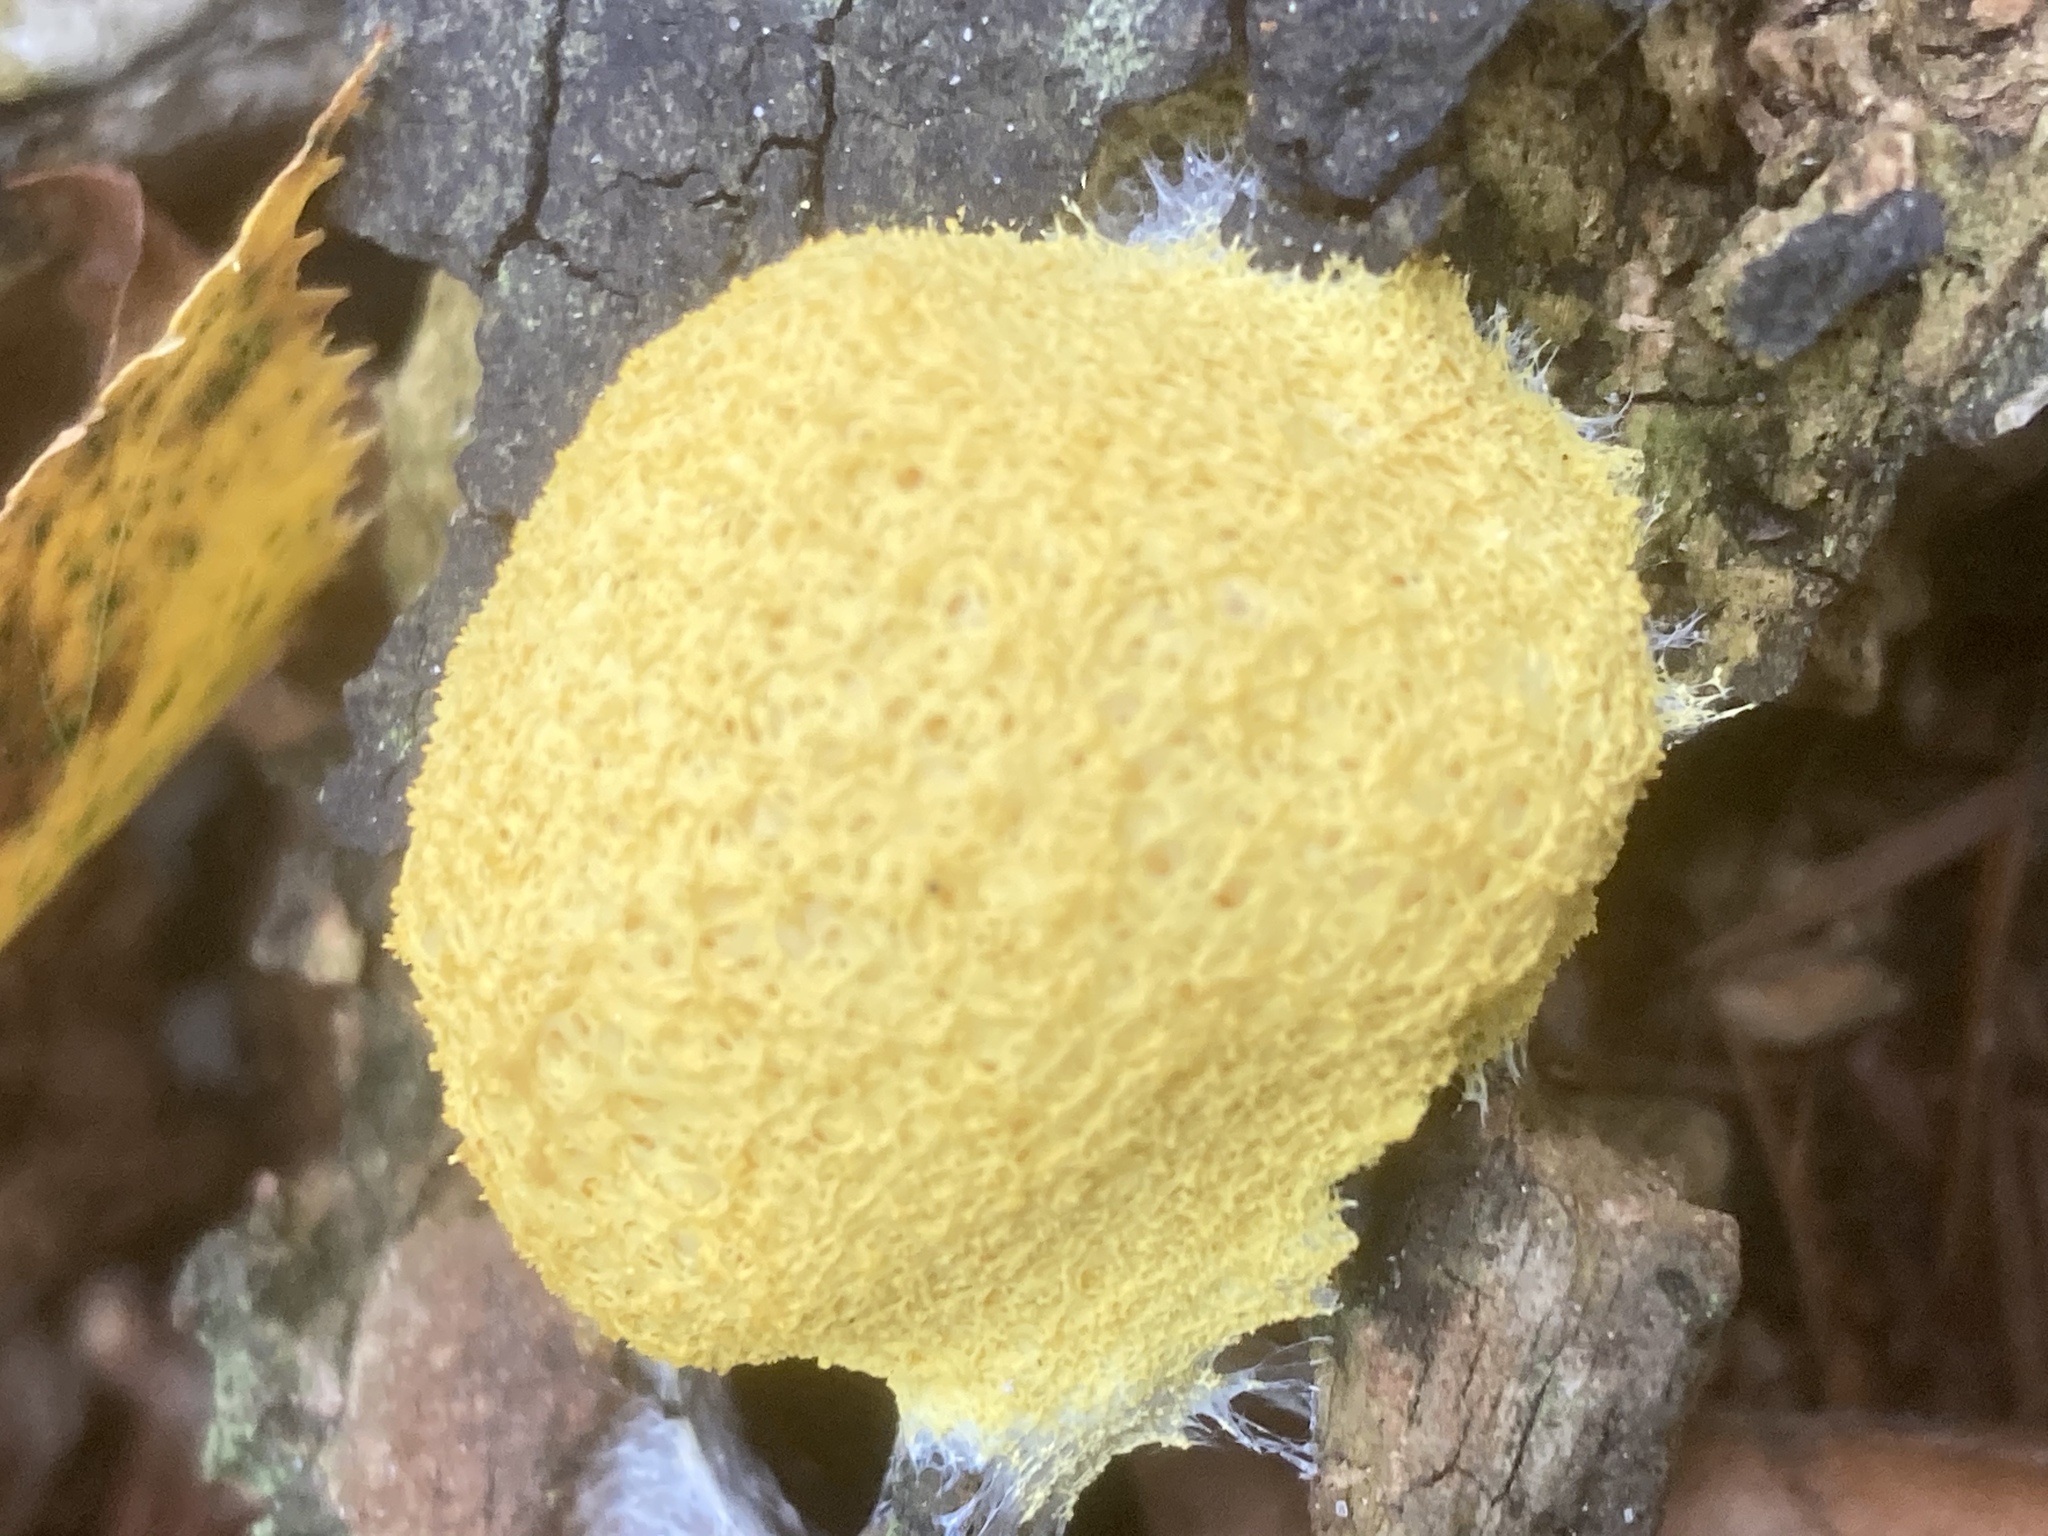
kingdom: Protozoa
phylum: Mycetozoa
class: Myxomycetes
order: Physarales
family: Physaraceae
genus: Fuligo
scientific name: Fuligo septica
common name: Dog vomit slime mold
